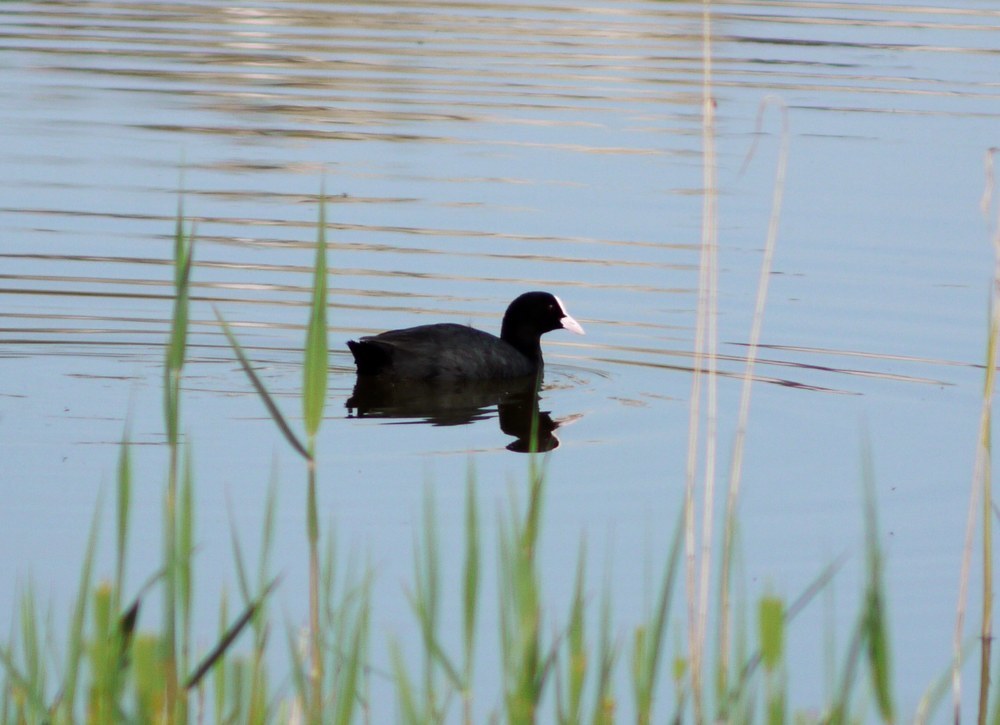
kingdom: Animalia
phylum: Chordata
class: Aves
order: Gruiformes
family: Rallidae
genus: Fulica
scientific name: Fulica atra
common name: Eurasian coot
